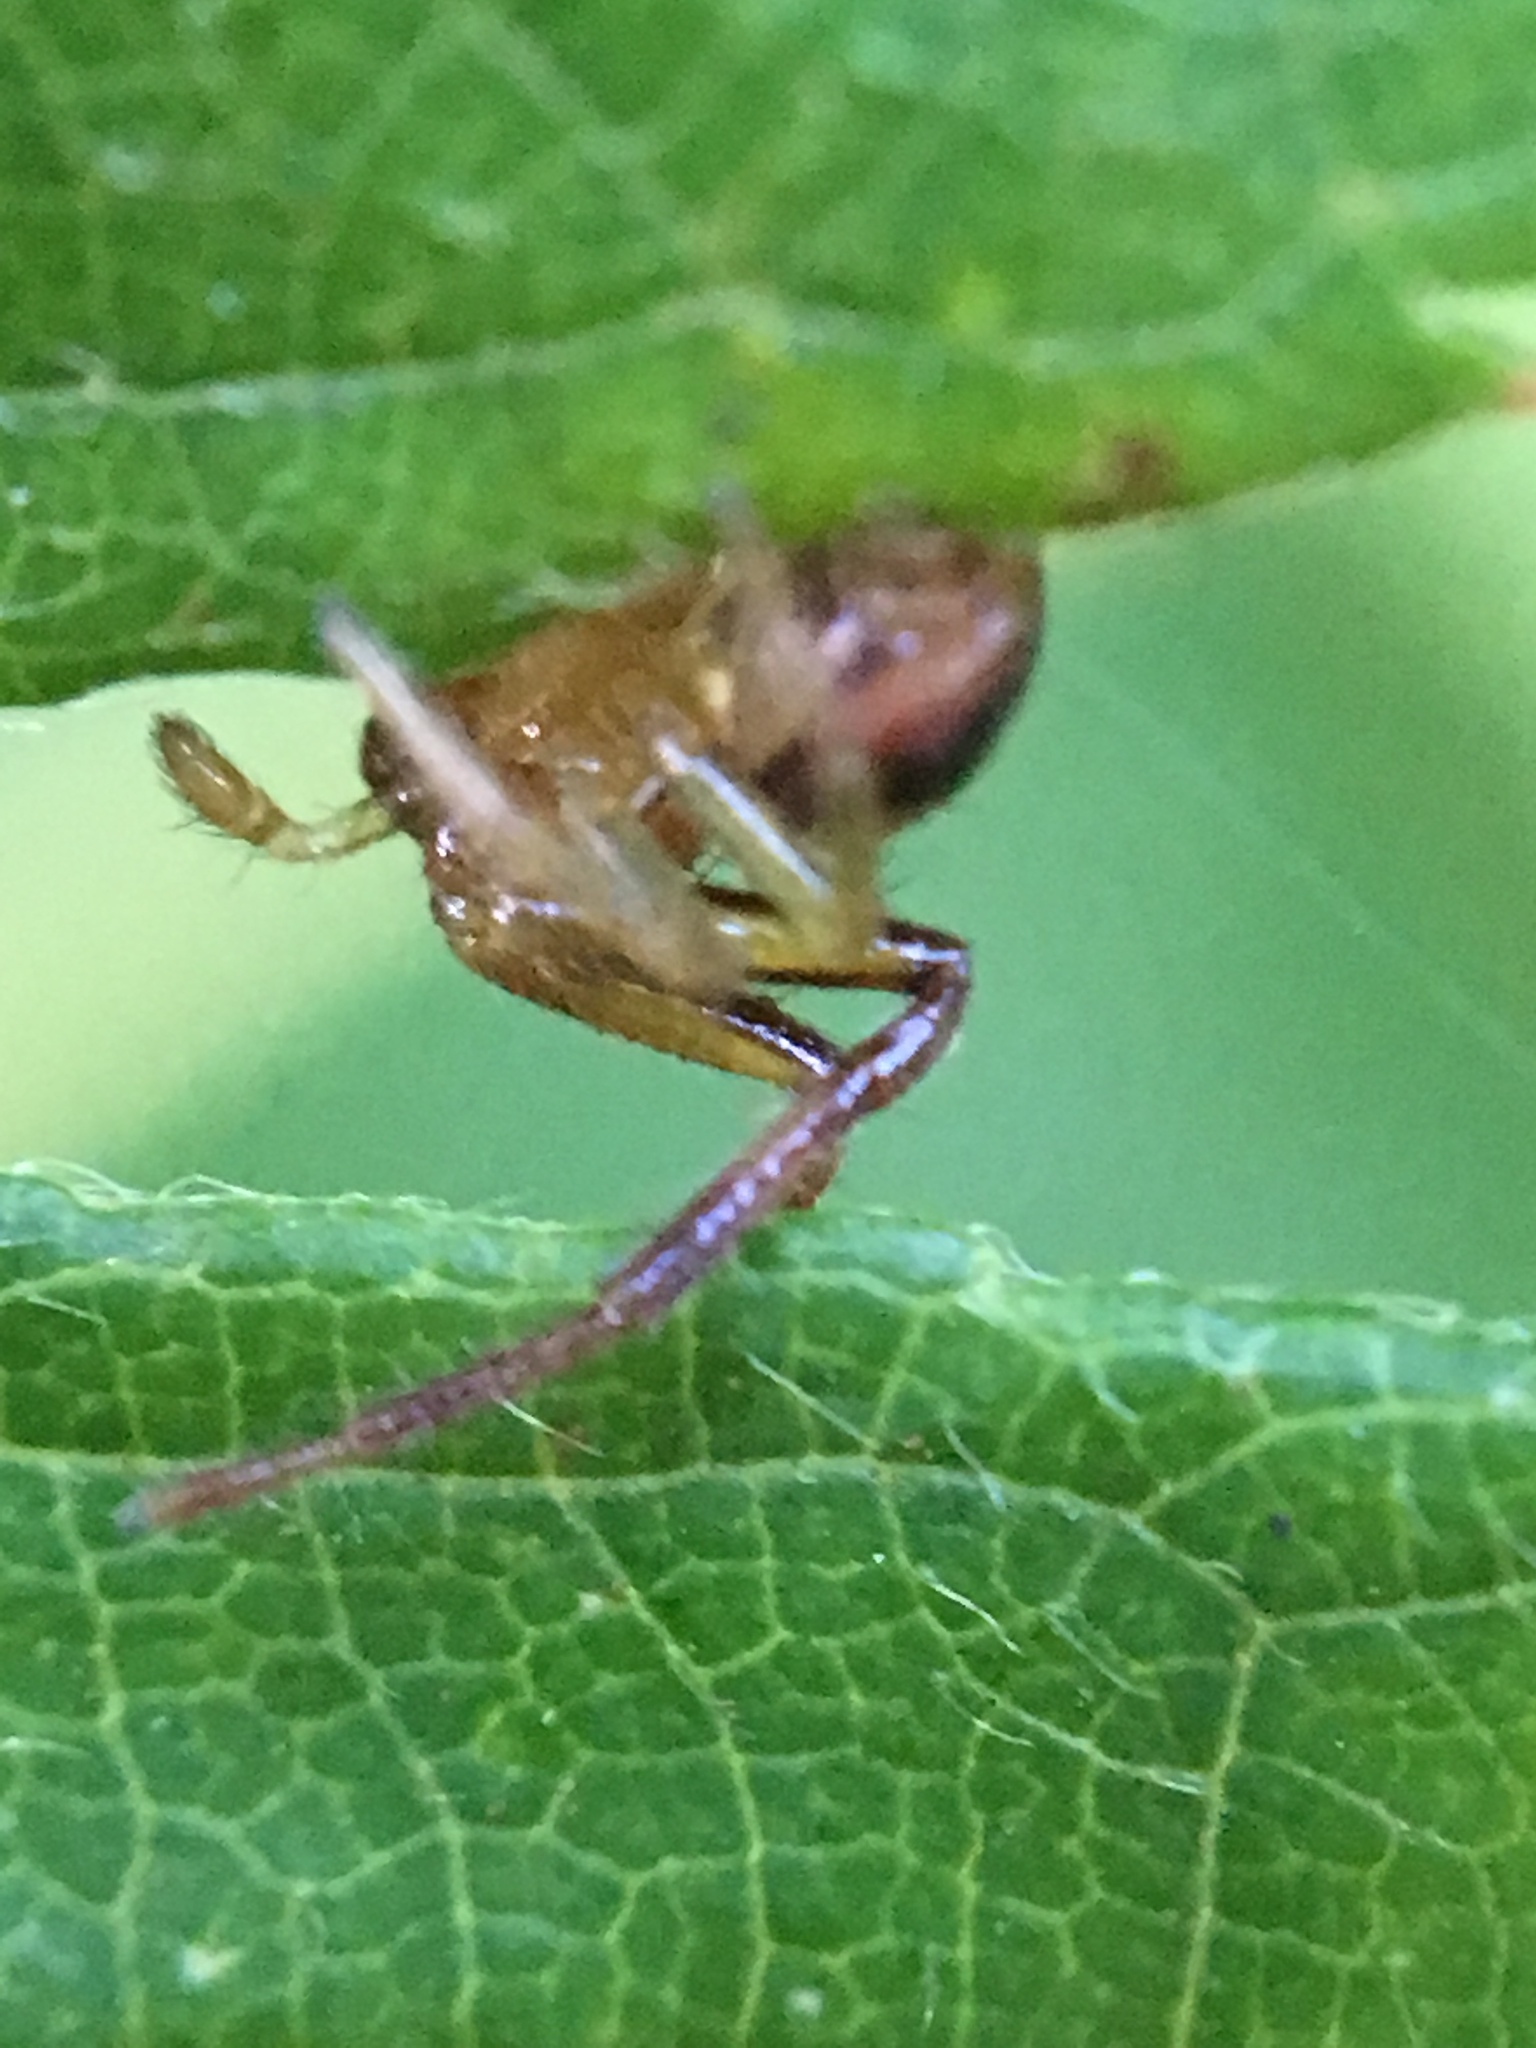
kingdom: Animalia
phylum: Arthropoda
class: Arachnida
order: Araneae
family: Thomisidae
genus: Synema
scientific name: Synema parvulum
